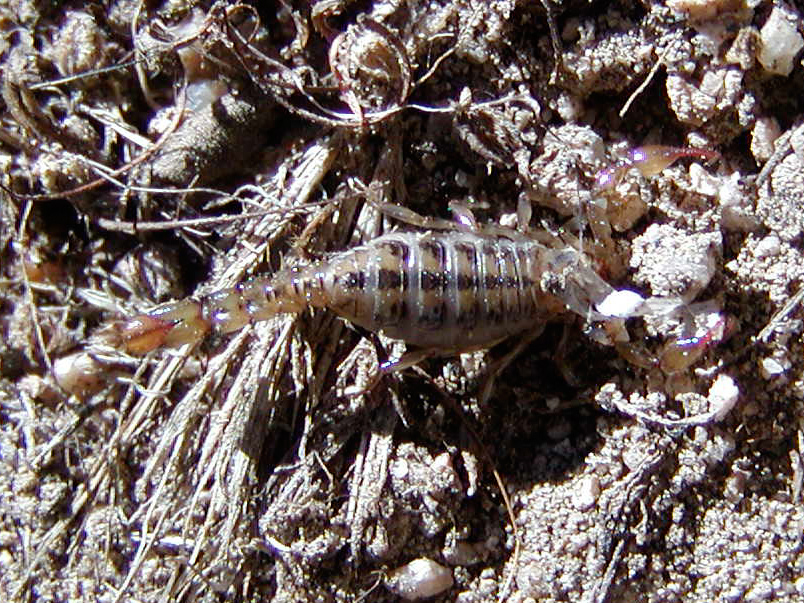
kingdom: Animalia
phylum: Arthropoda
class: Arachnida
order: Scorpiones
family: Superstitioniidae
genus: Superstitionia
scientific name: Superstitionia donensis
